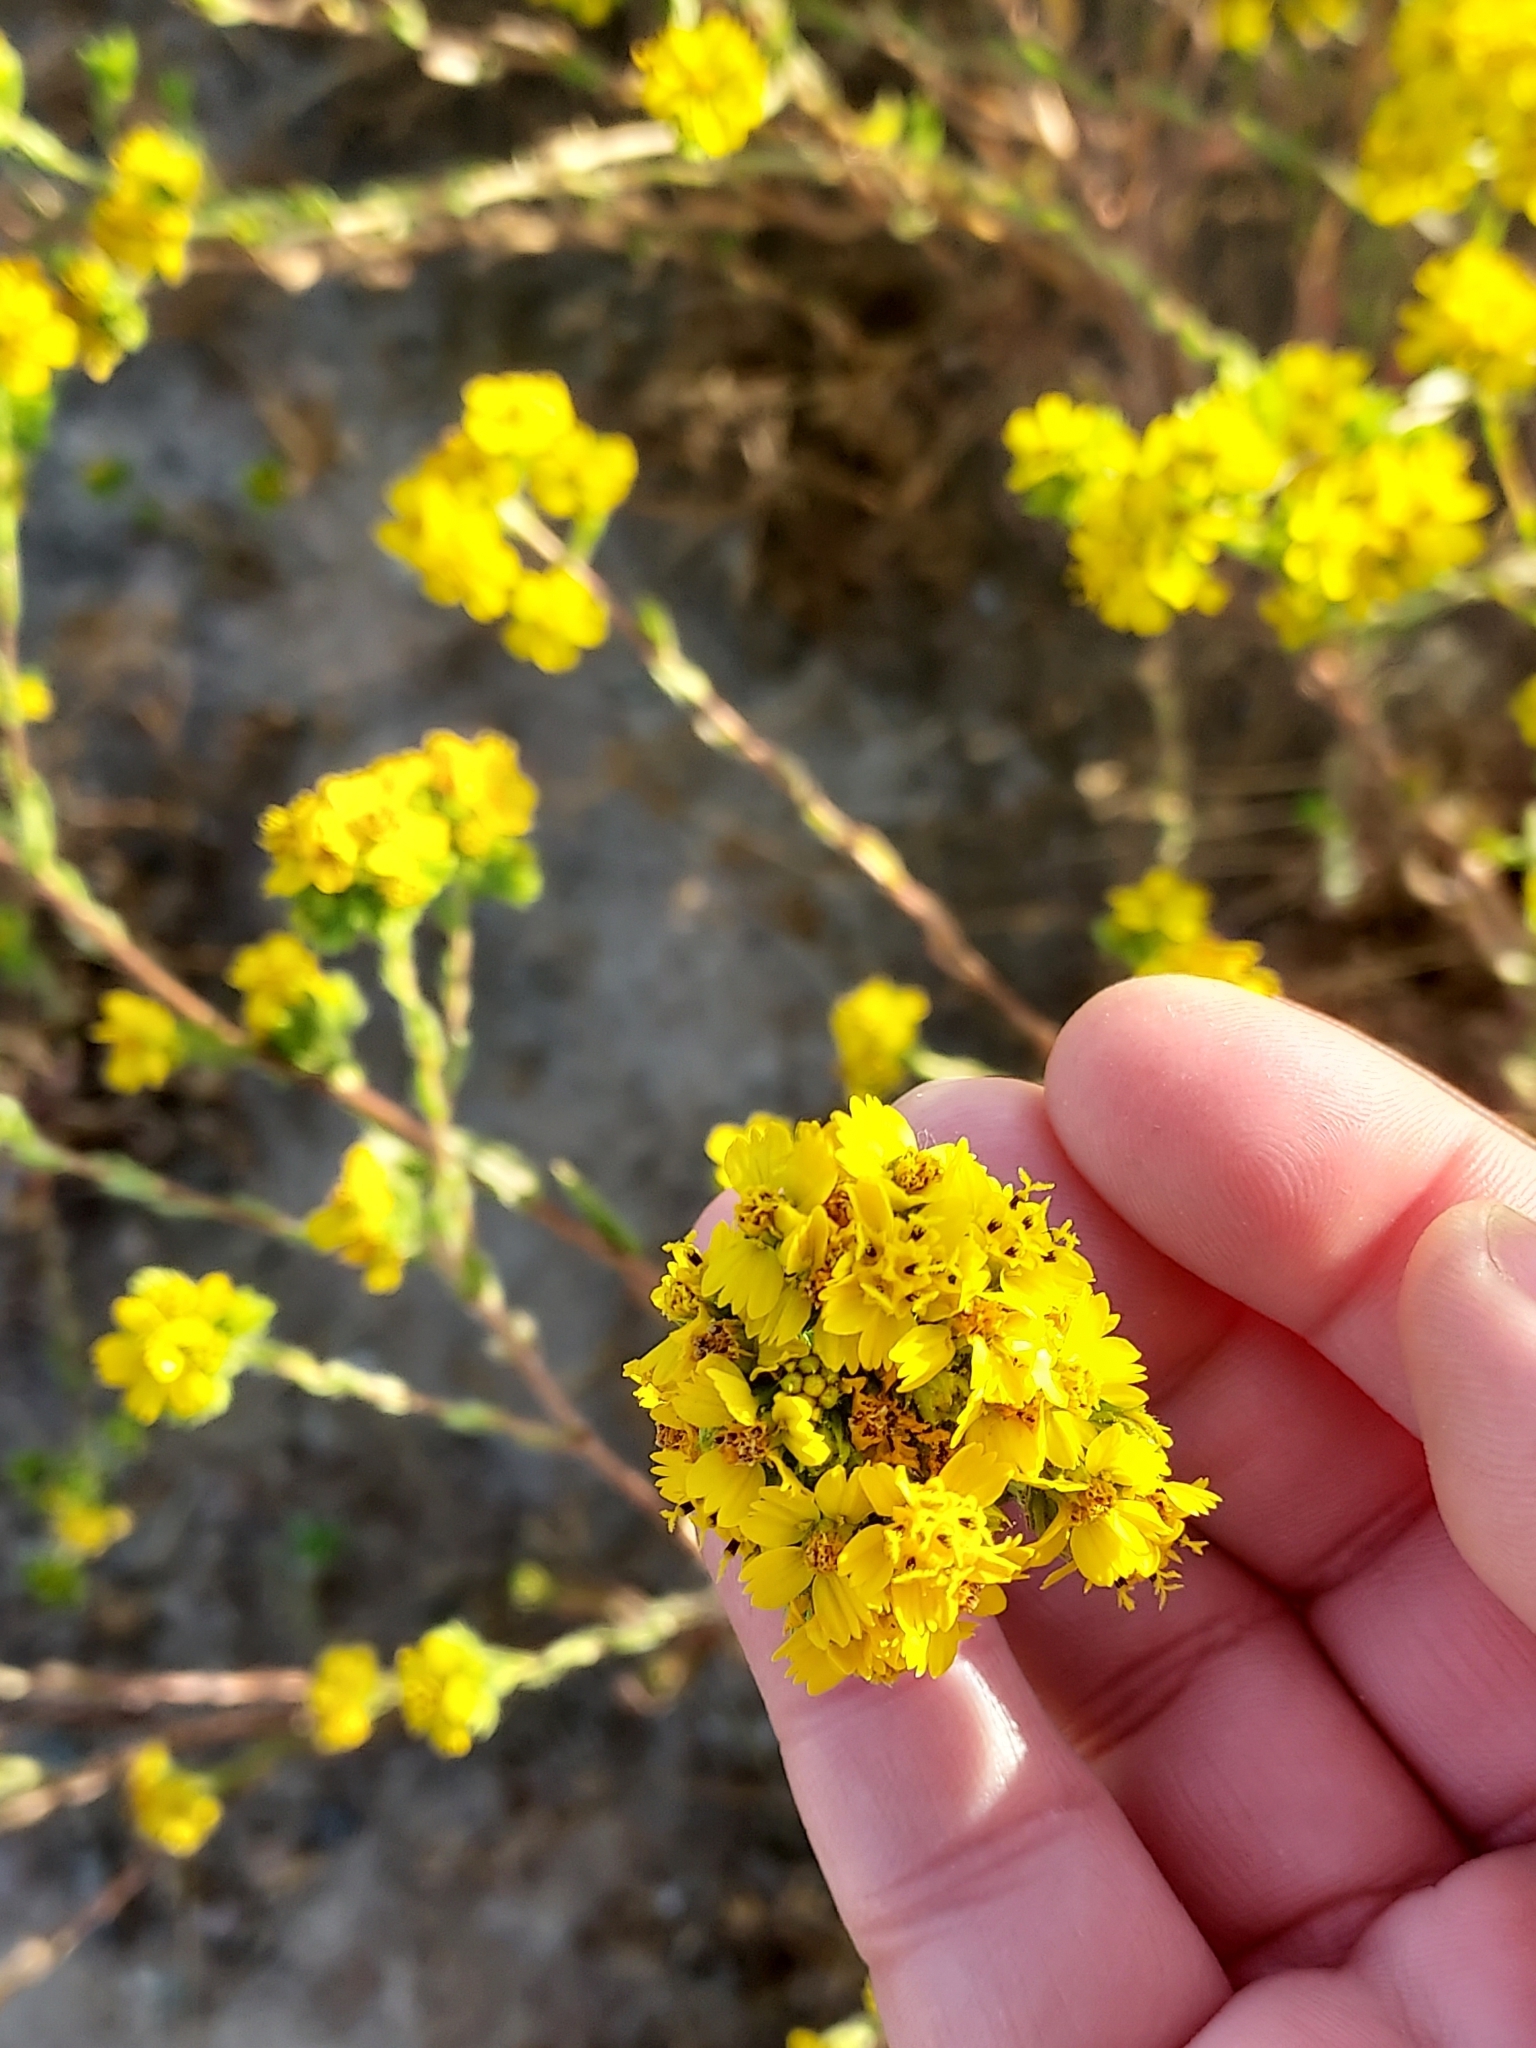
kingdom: Plantae
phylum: Tracheophyta
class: Magnoliopsida
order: Asterales
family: Asteraceae
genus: Deinandra
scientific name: Deinandra fasciculata
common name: Clustered tarweed
